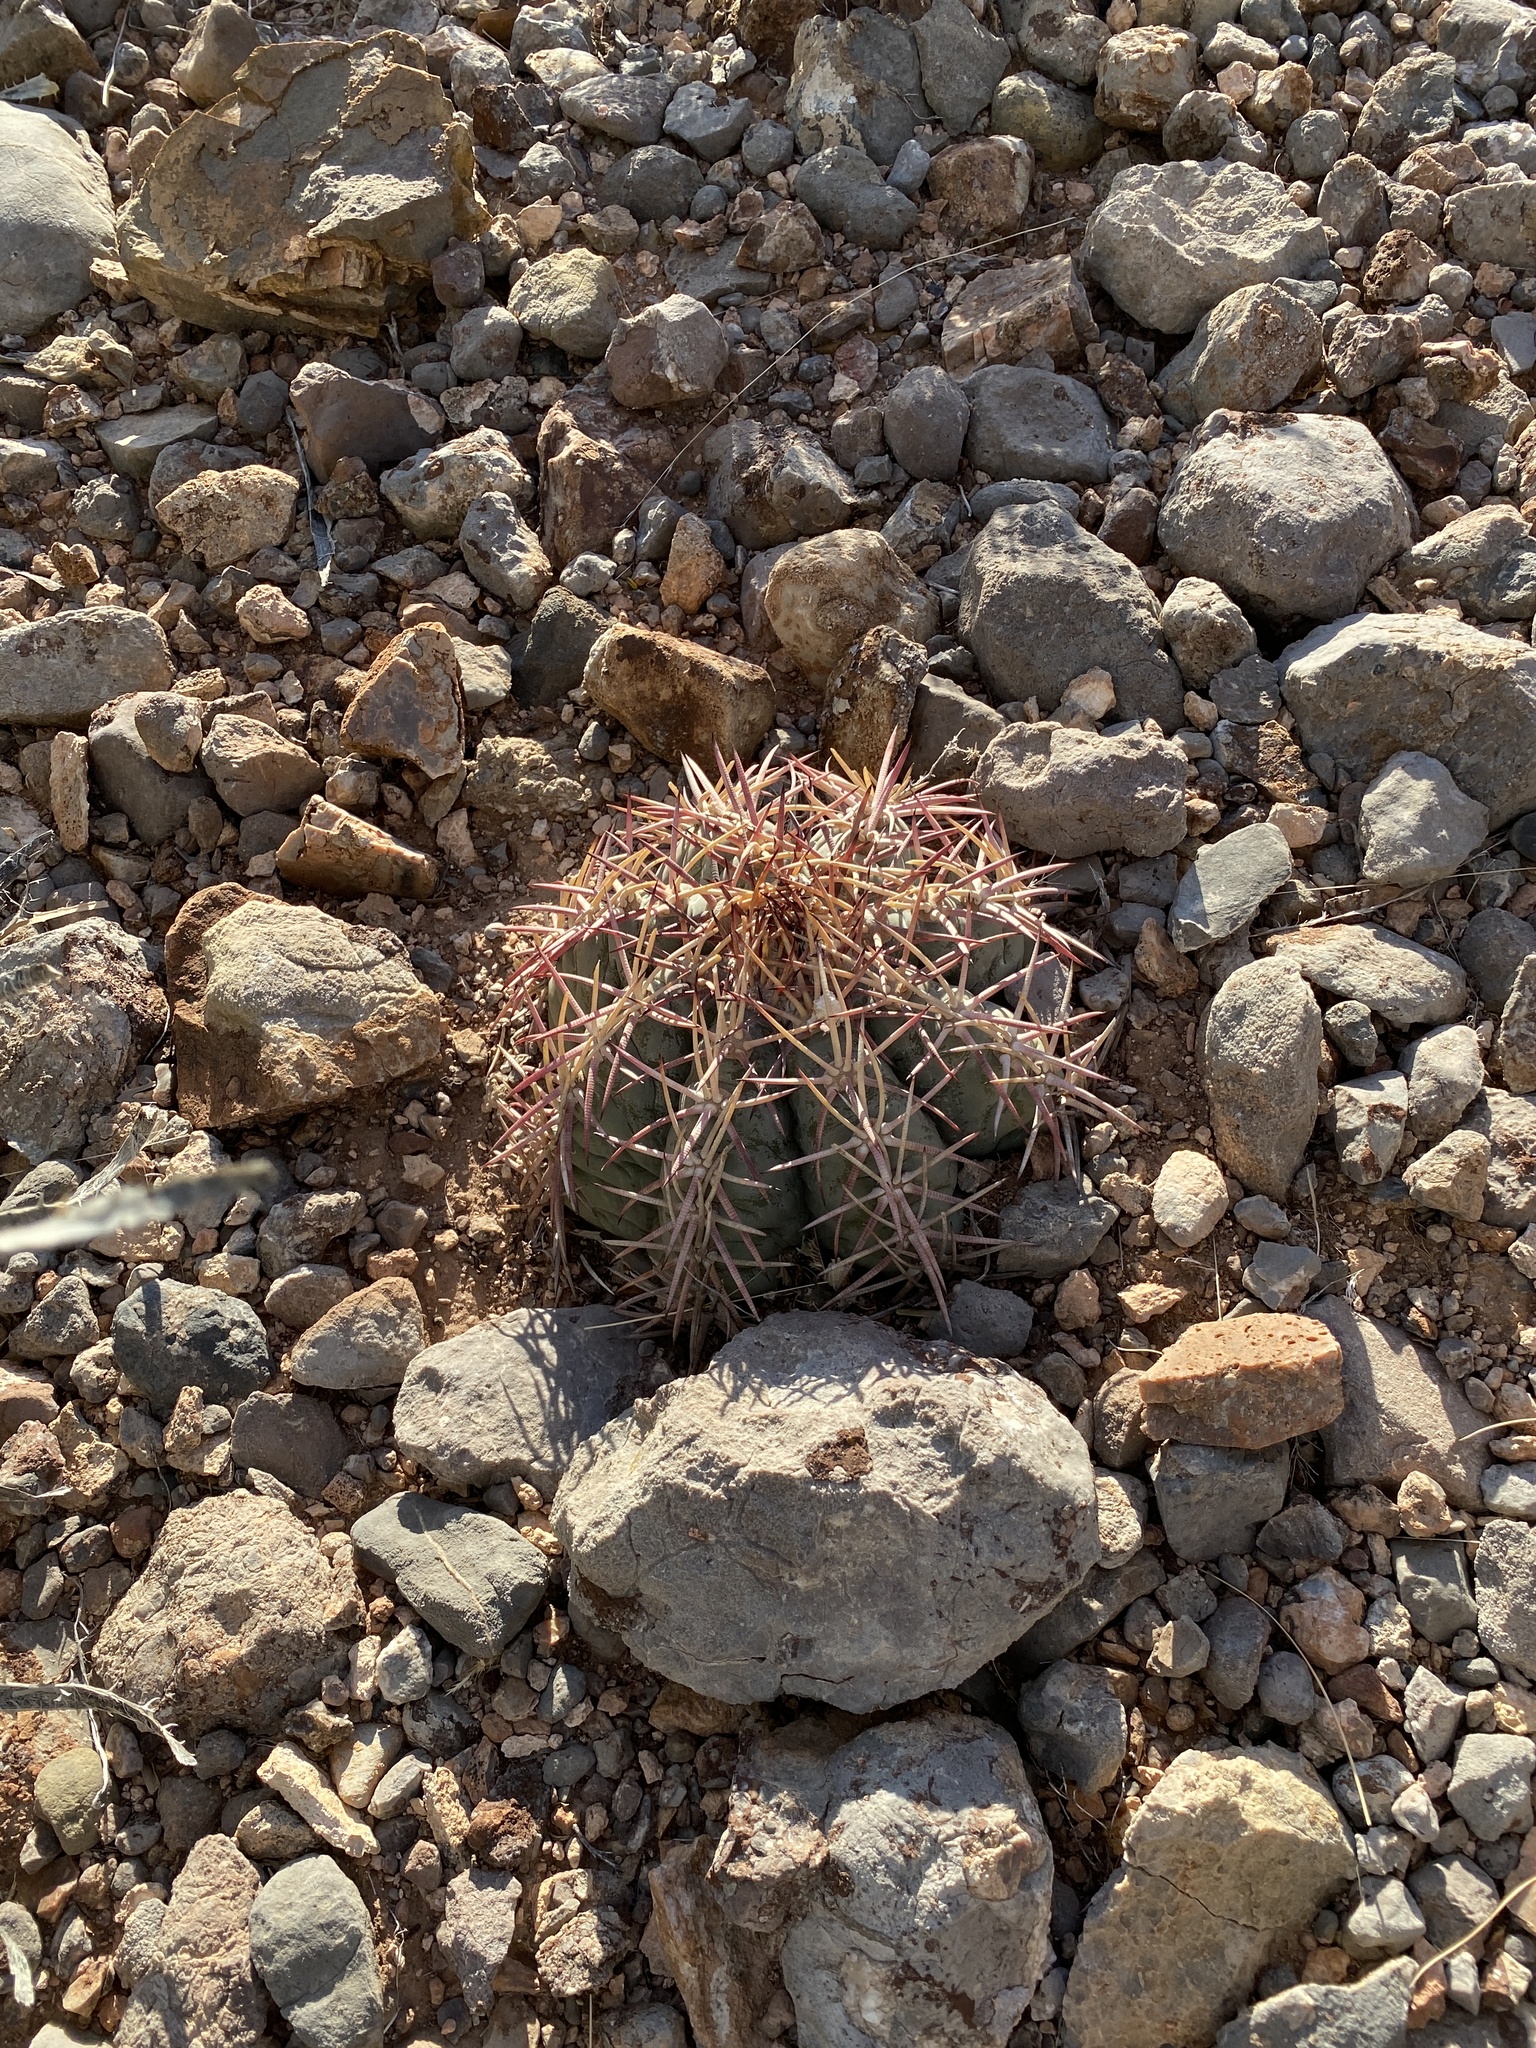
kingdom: Plantae
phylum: Tracheophyta
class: Magnoliopsida
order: Caryophyllales
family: Cactaceae
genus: Echinocactus
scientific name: Echinocactus horizonthalonius
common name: Devilshead
